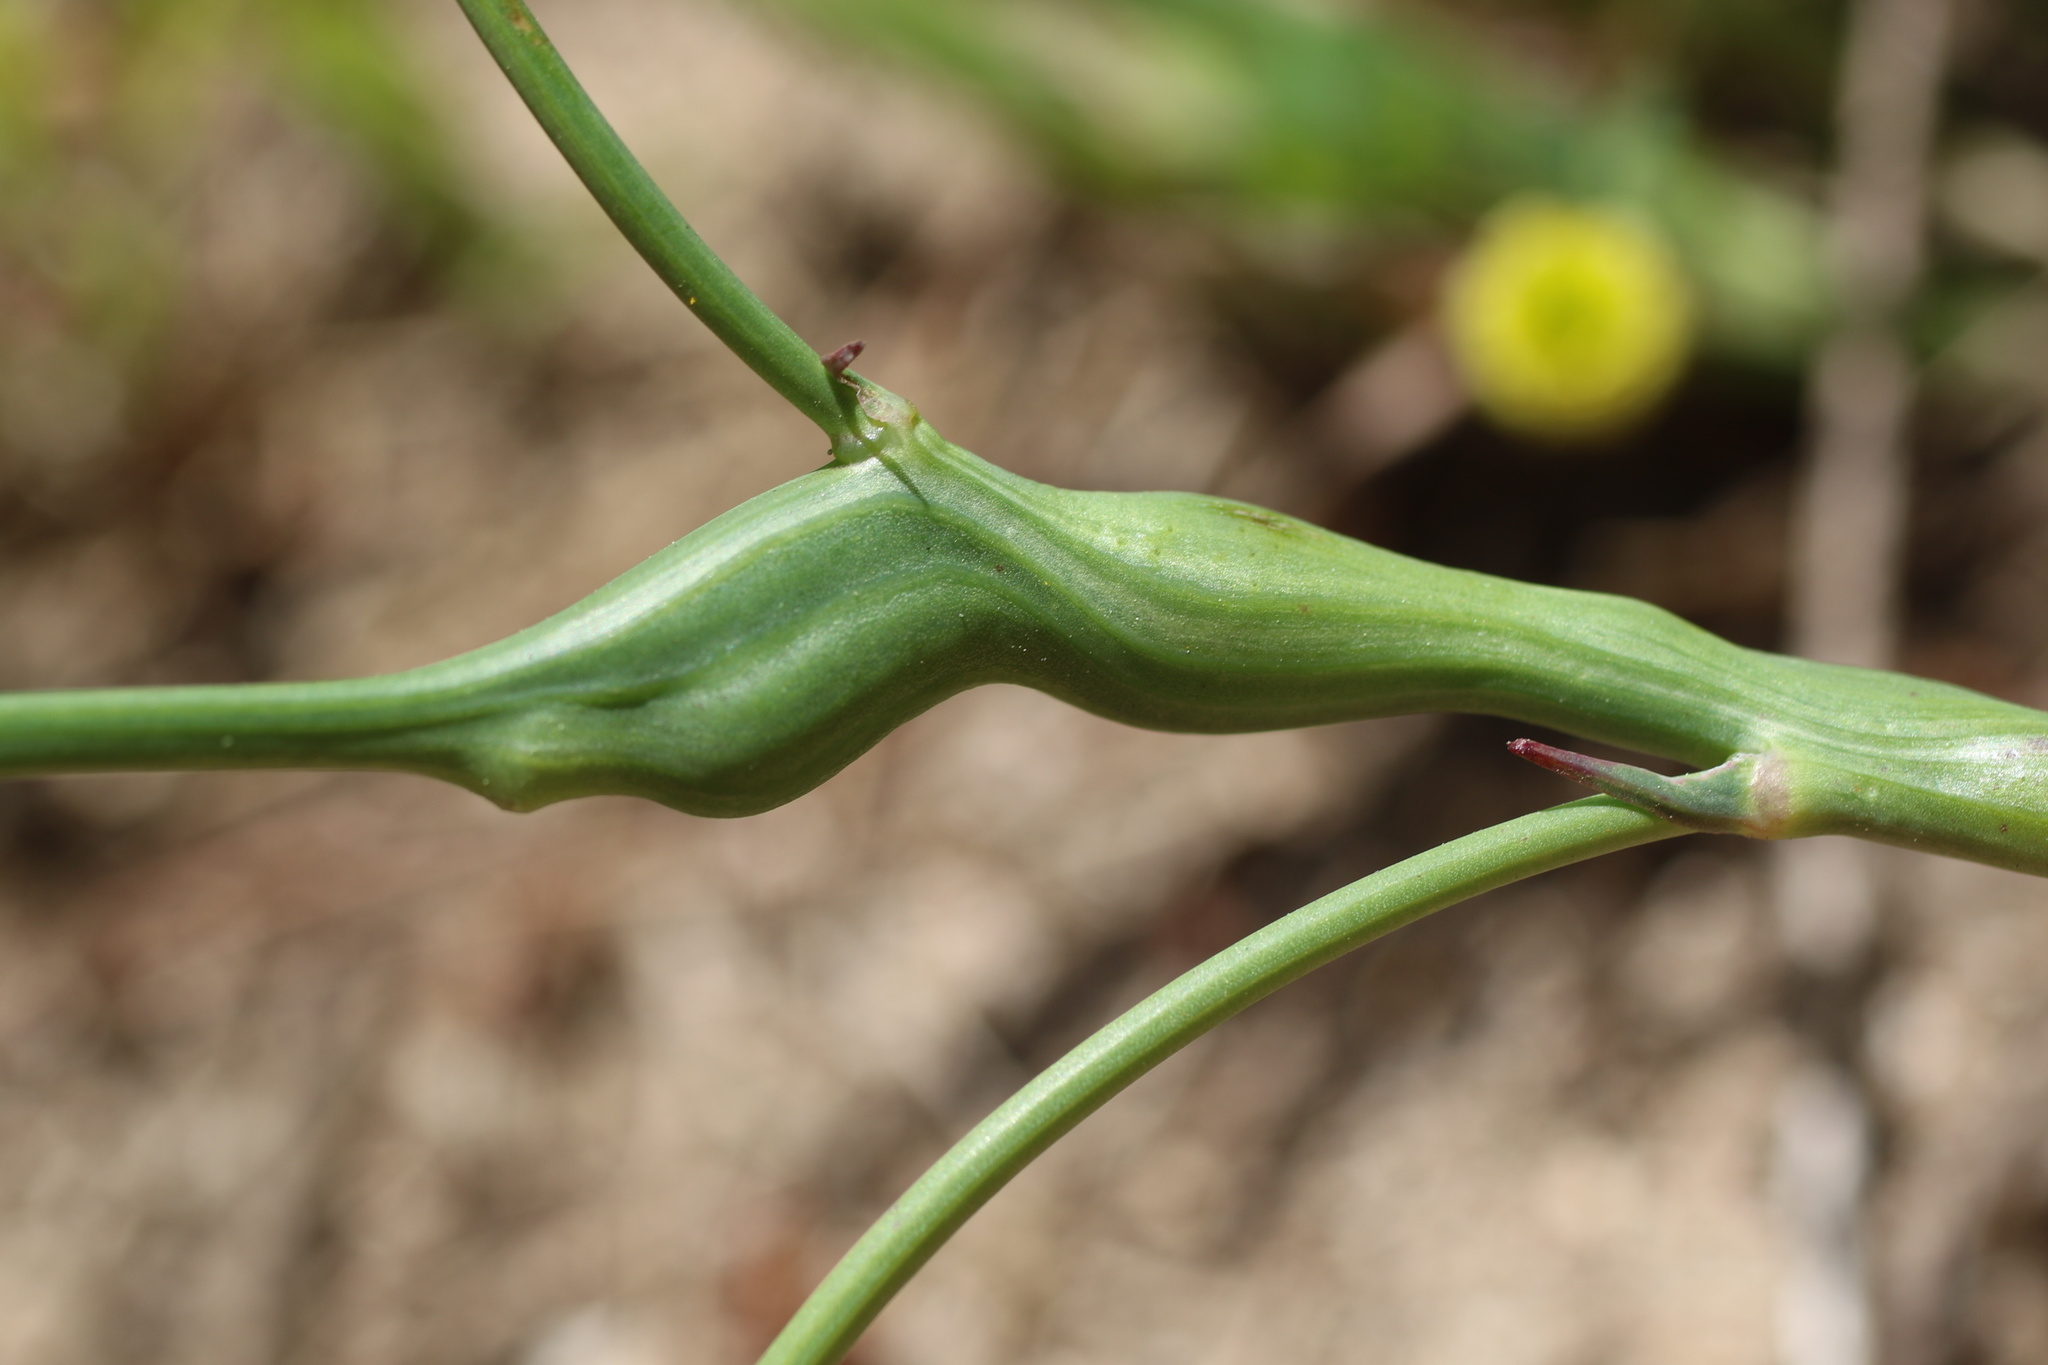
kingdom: Animalia
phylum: Arthropoda
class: Insecta
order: Hymenoptera
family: Cynipidae
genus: Phanacis
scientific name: Phanacis hypochoeridis
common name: Gall wasp
